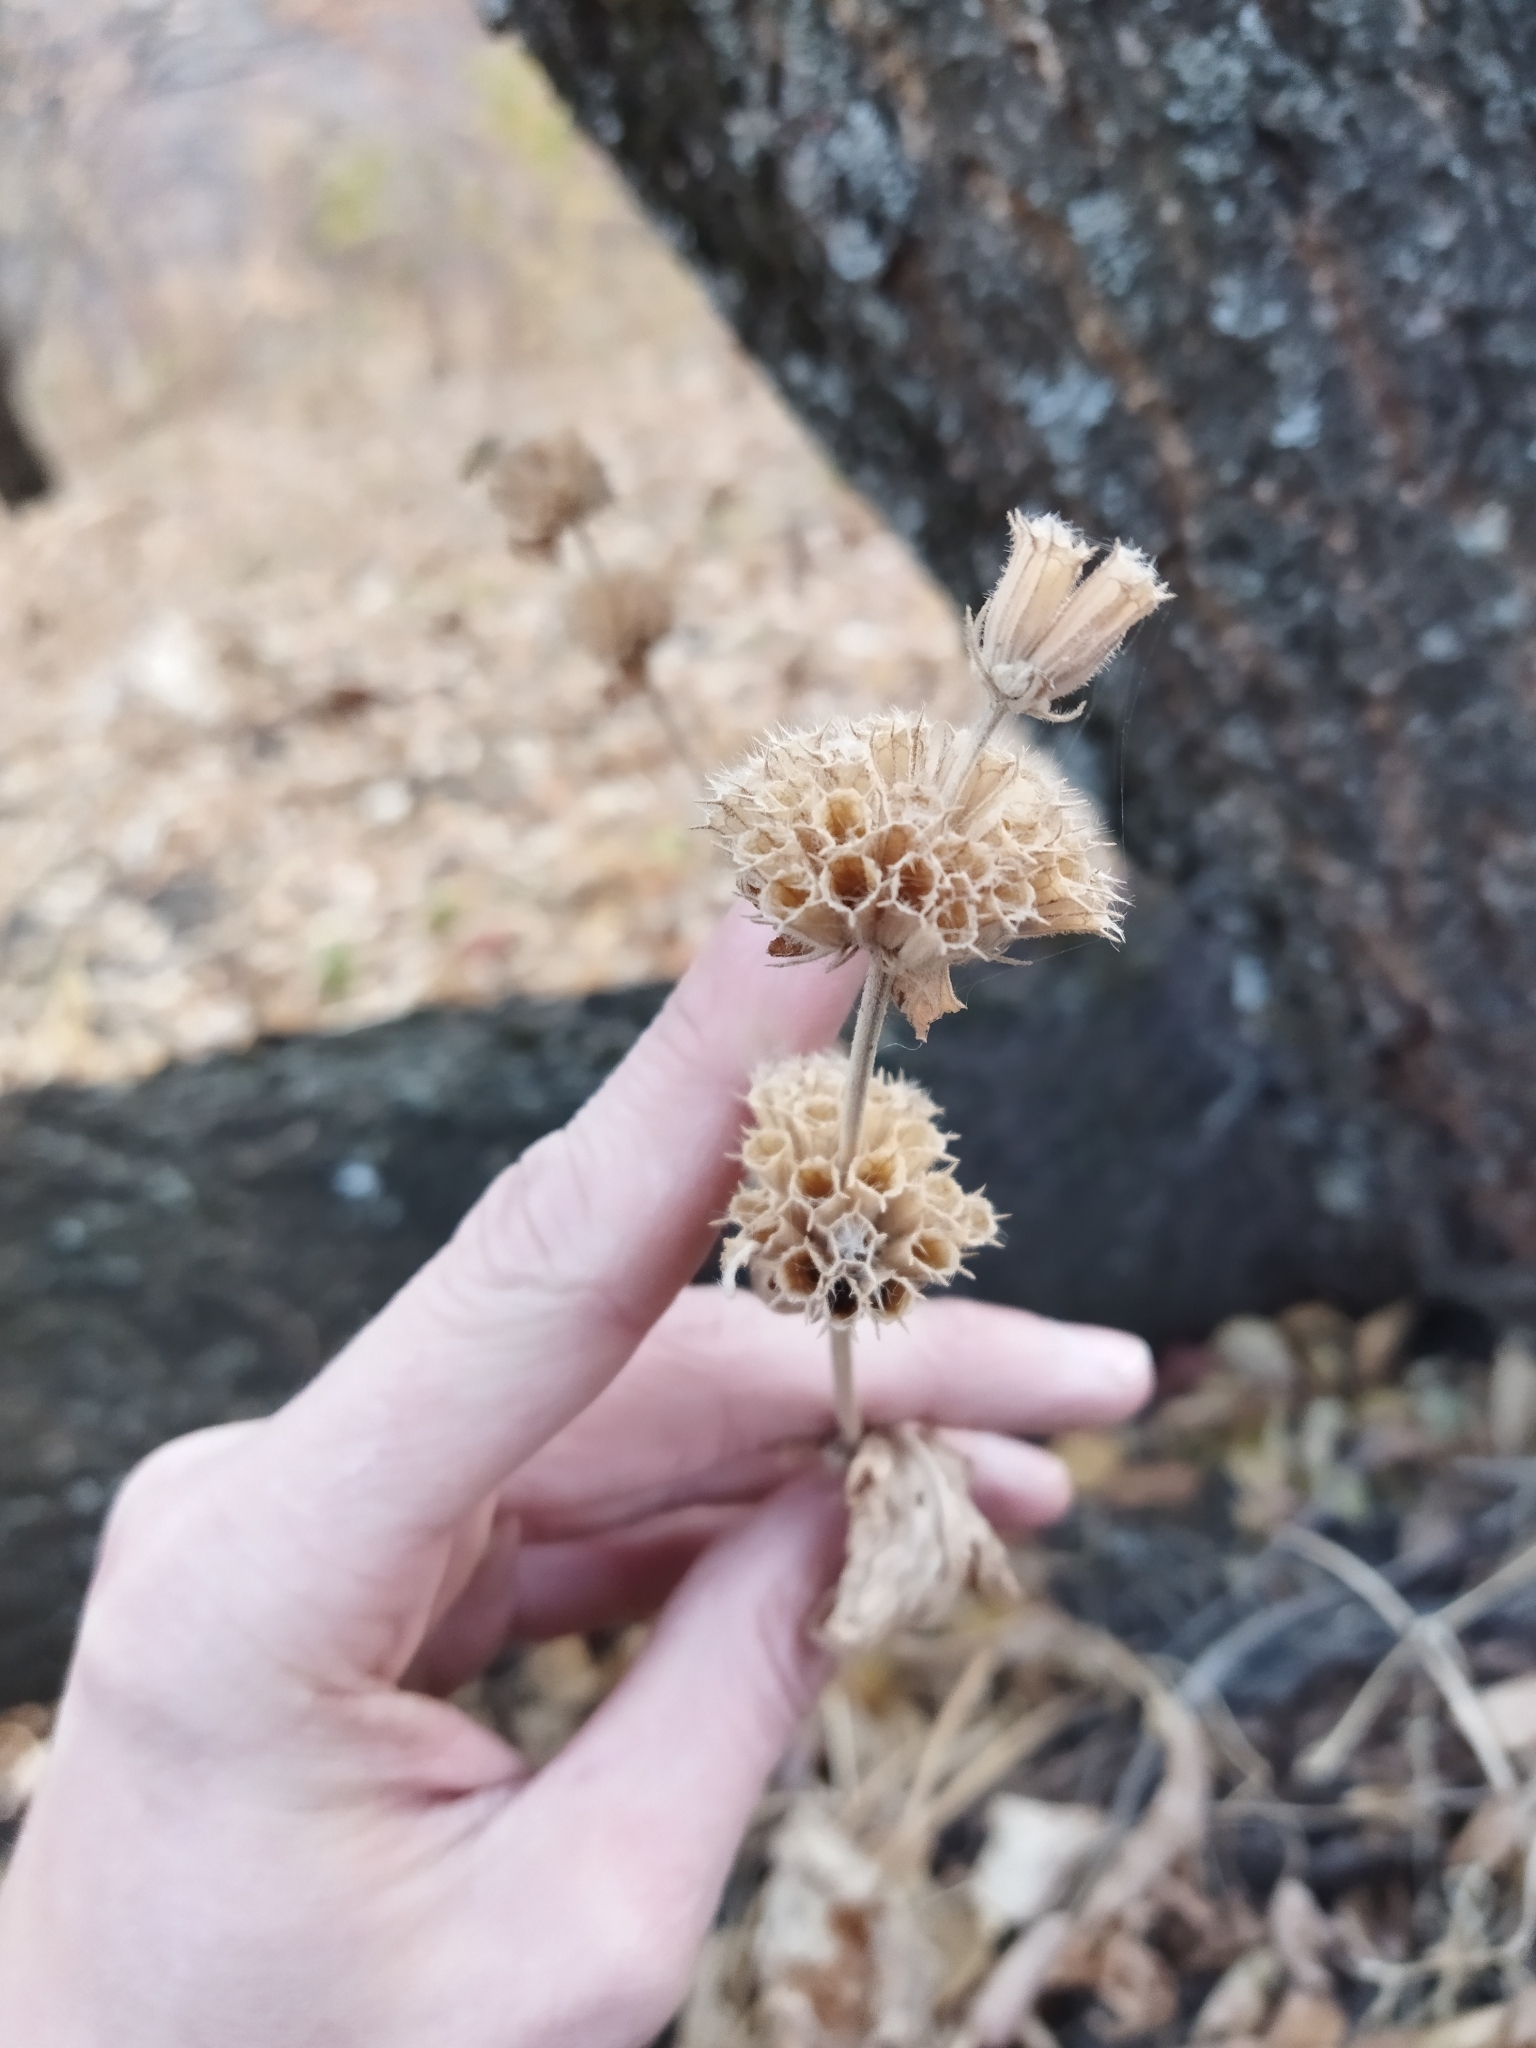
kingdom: Plantae
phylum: Tracheophyta
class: Magnoliopsida
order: Lamiales
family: Lamiaceae
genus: Phlomoides
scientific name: Phlomoides pratensis
